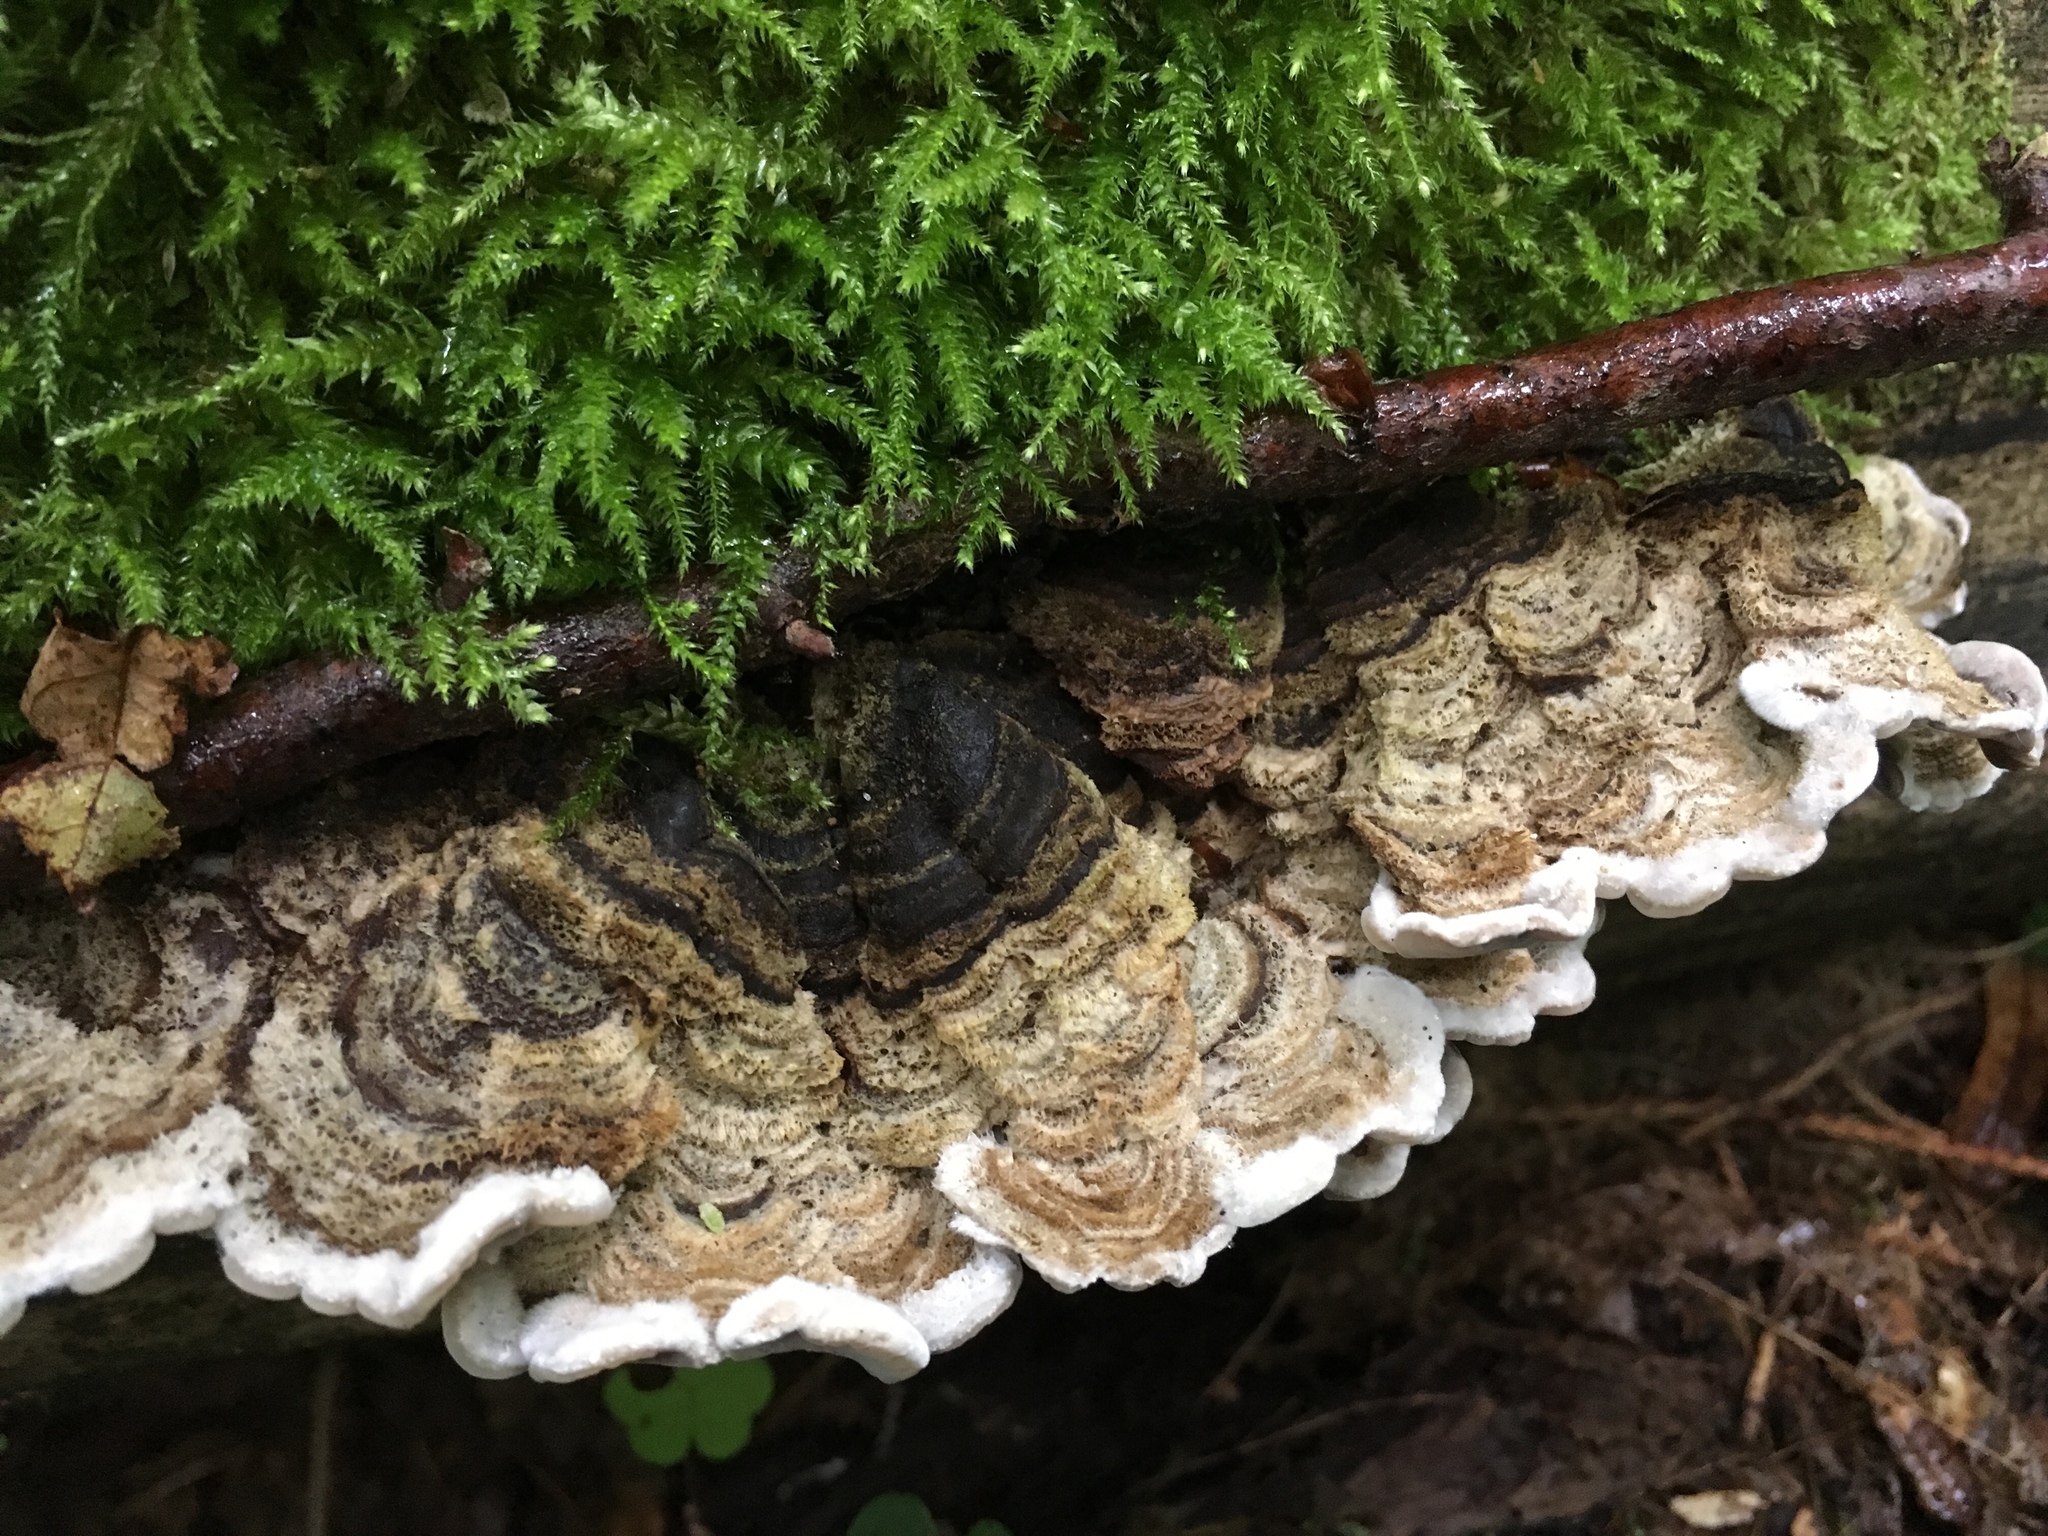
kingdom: Fungi
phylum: Basidiomycota
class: Agaricomycetes
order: Auriculariales
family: Auriculariaceae
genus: Auricularia
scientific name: Auricularia mesenterica
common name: Tripe fungus
